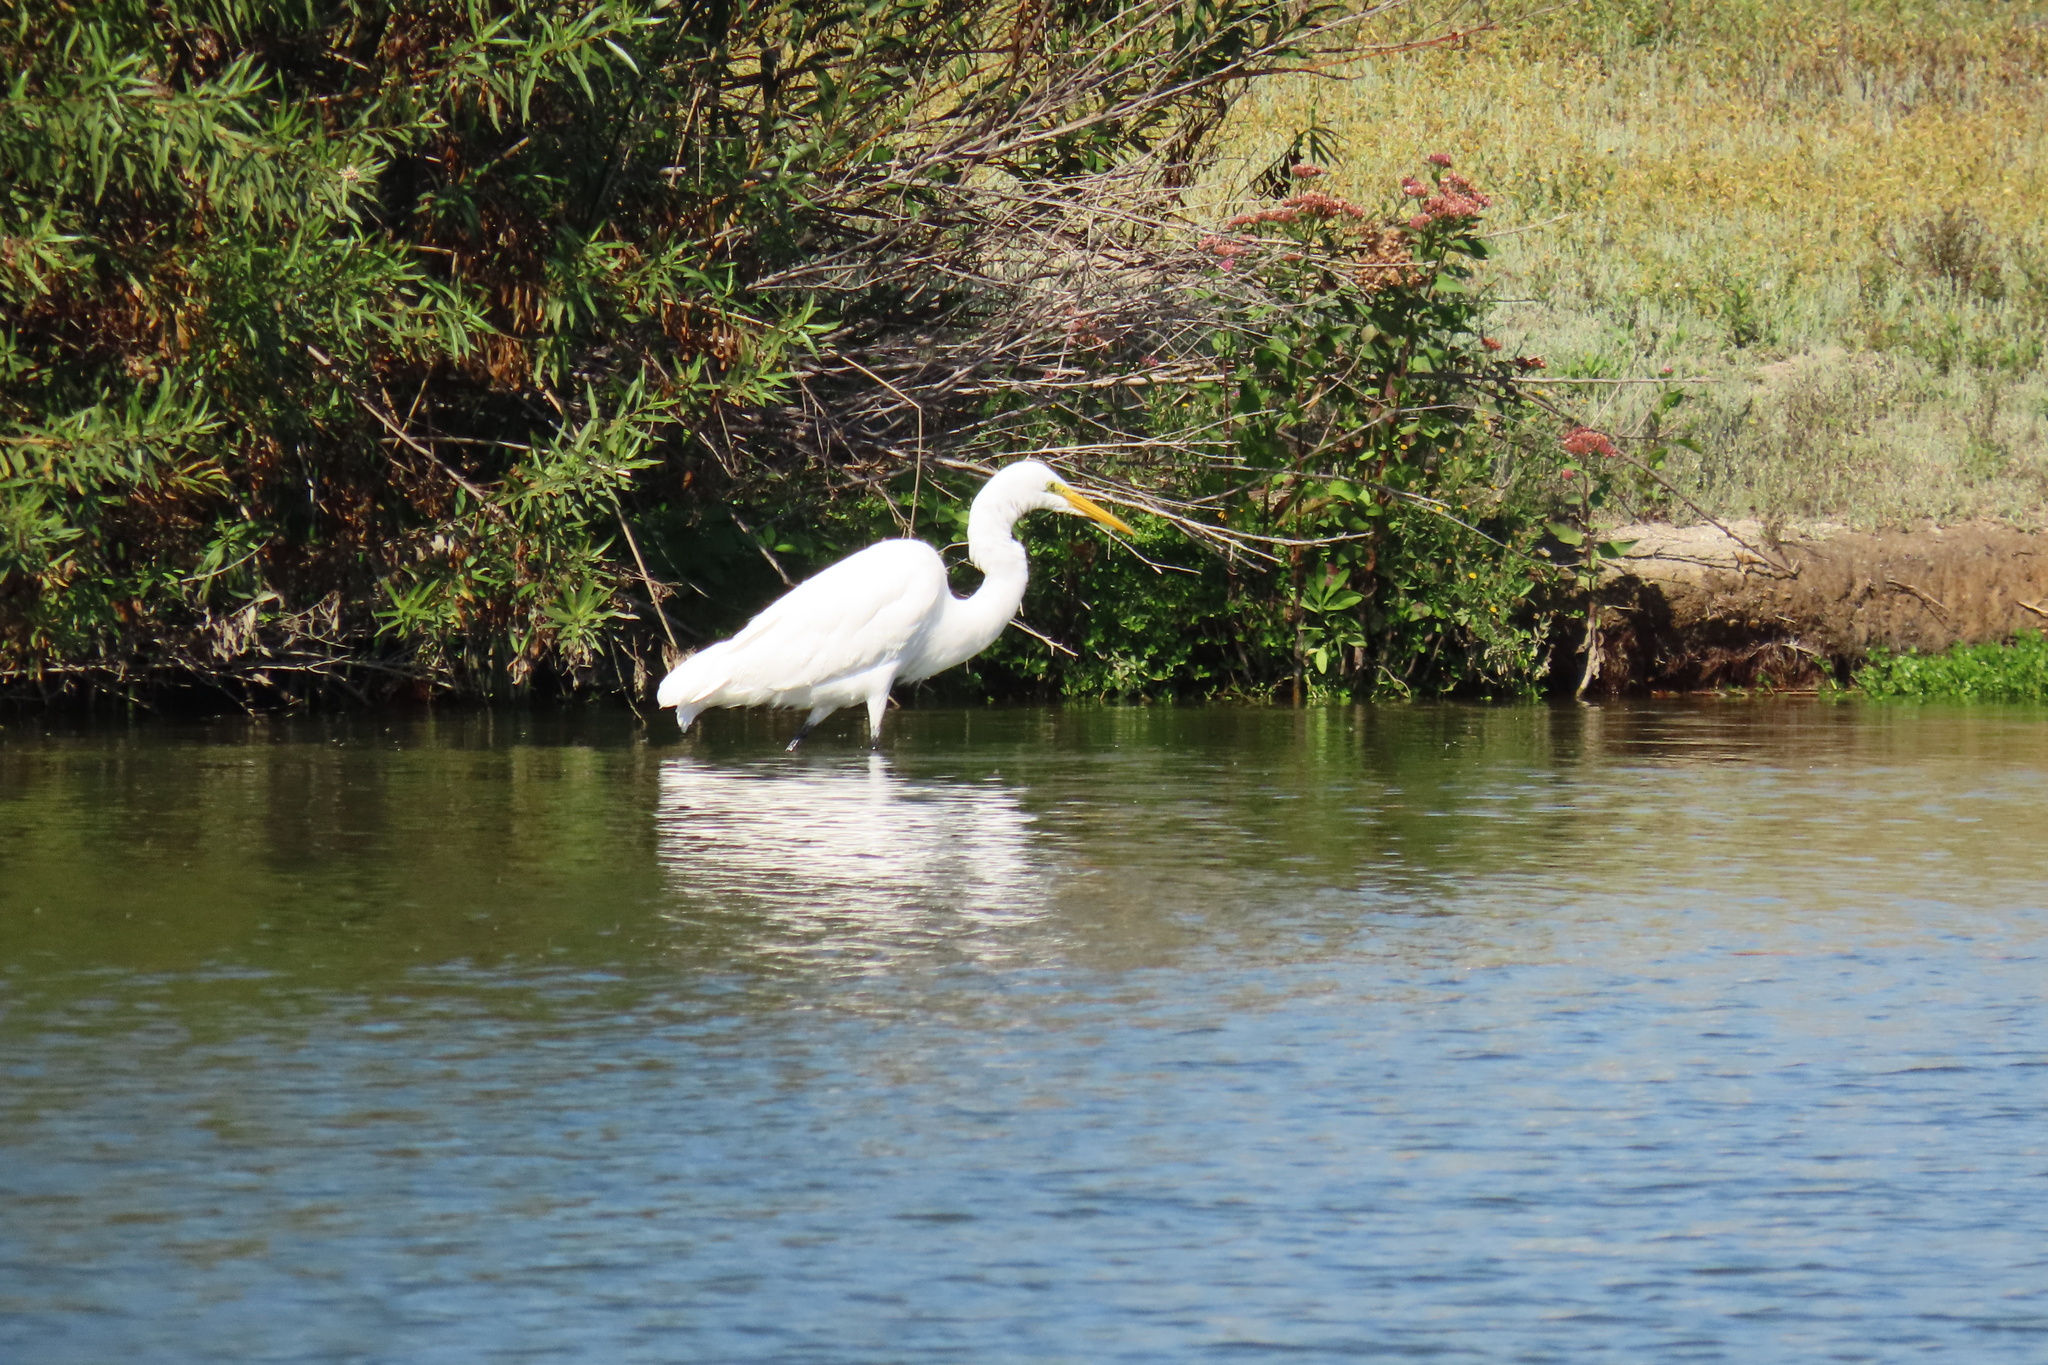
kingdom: Animalia
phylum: Chordata
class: Aves
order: Pelecaniformes
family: Ardeidae
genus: Ardea
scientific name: Ardea alba
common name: Great egret
